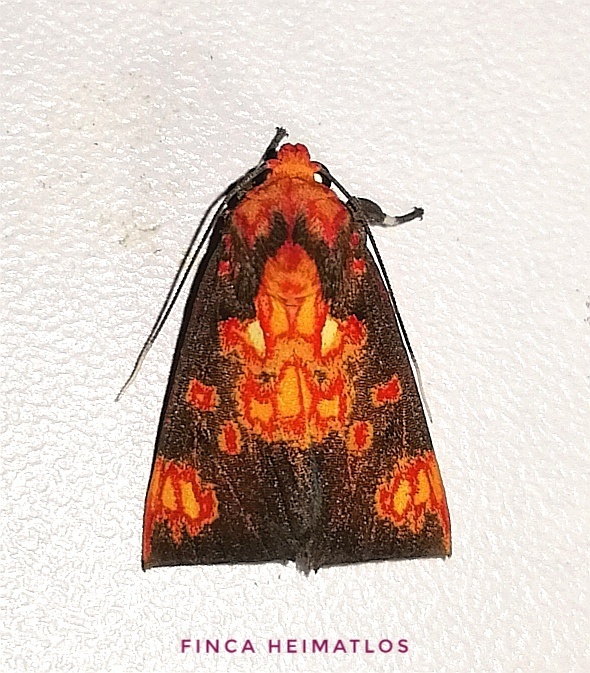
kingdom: Animalia
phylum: Arthropoda
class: Insecta
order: Lepidoptera
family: Erebidae
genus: Melese
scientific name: Melese nebulosa
